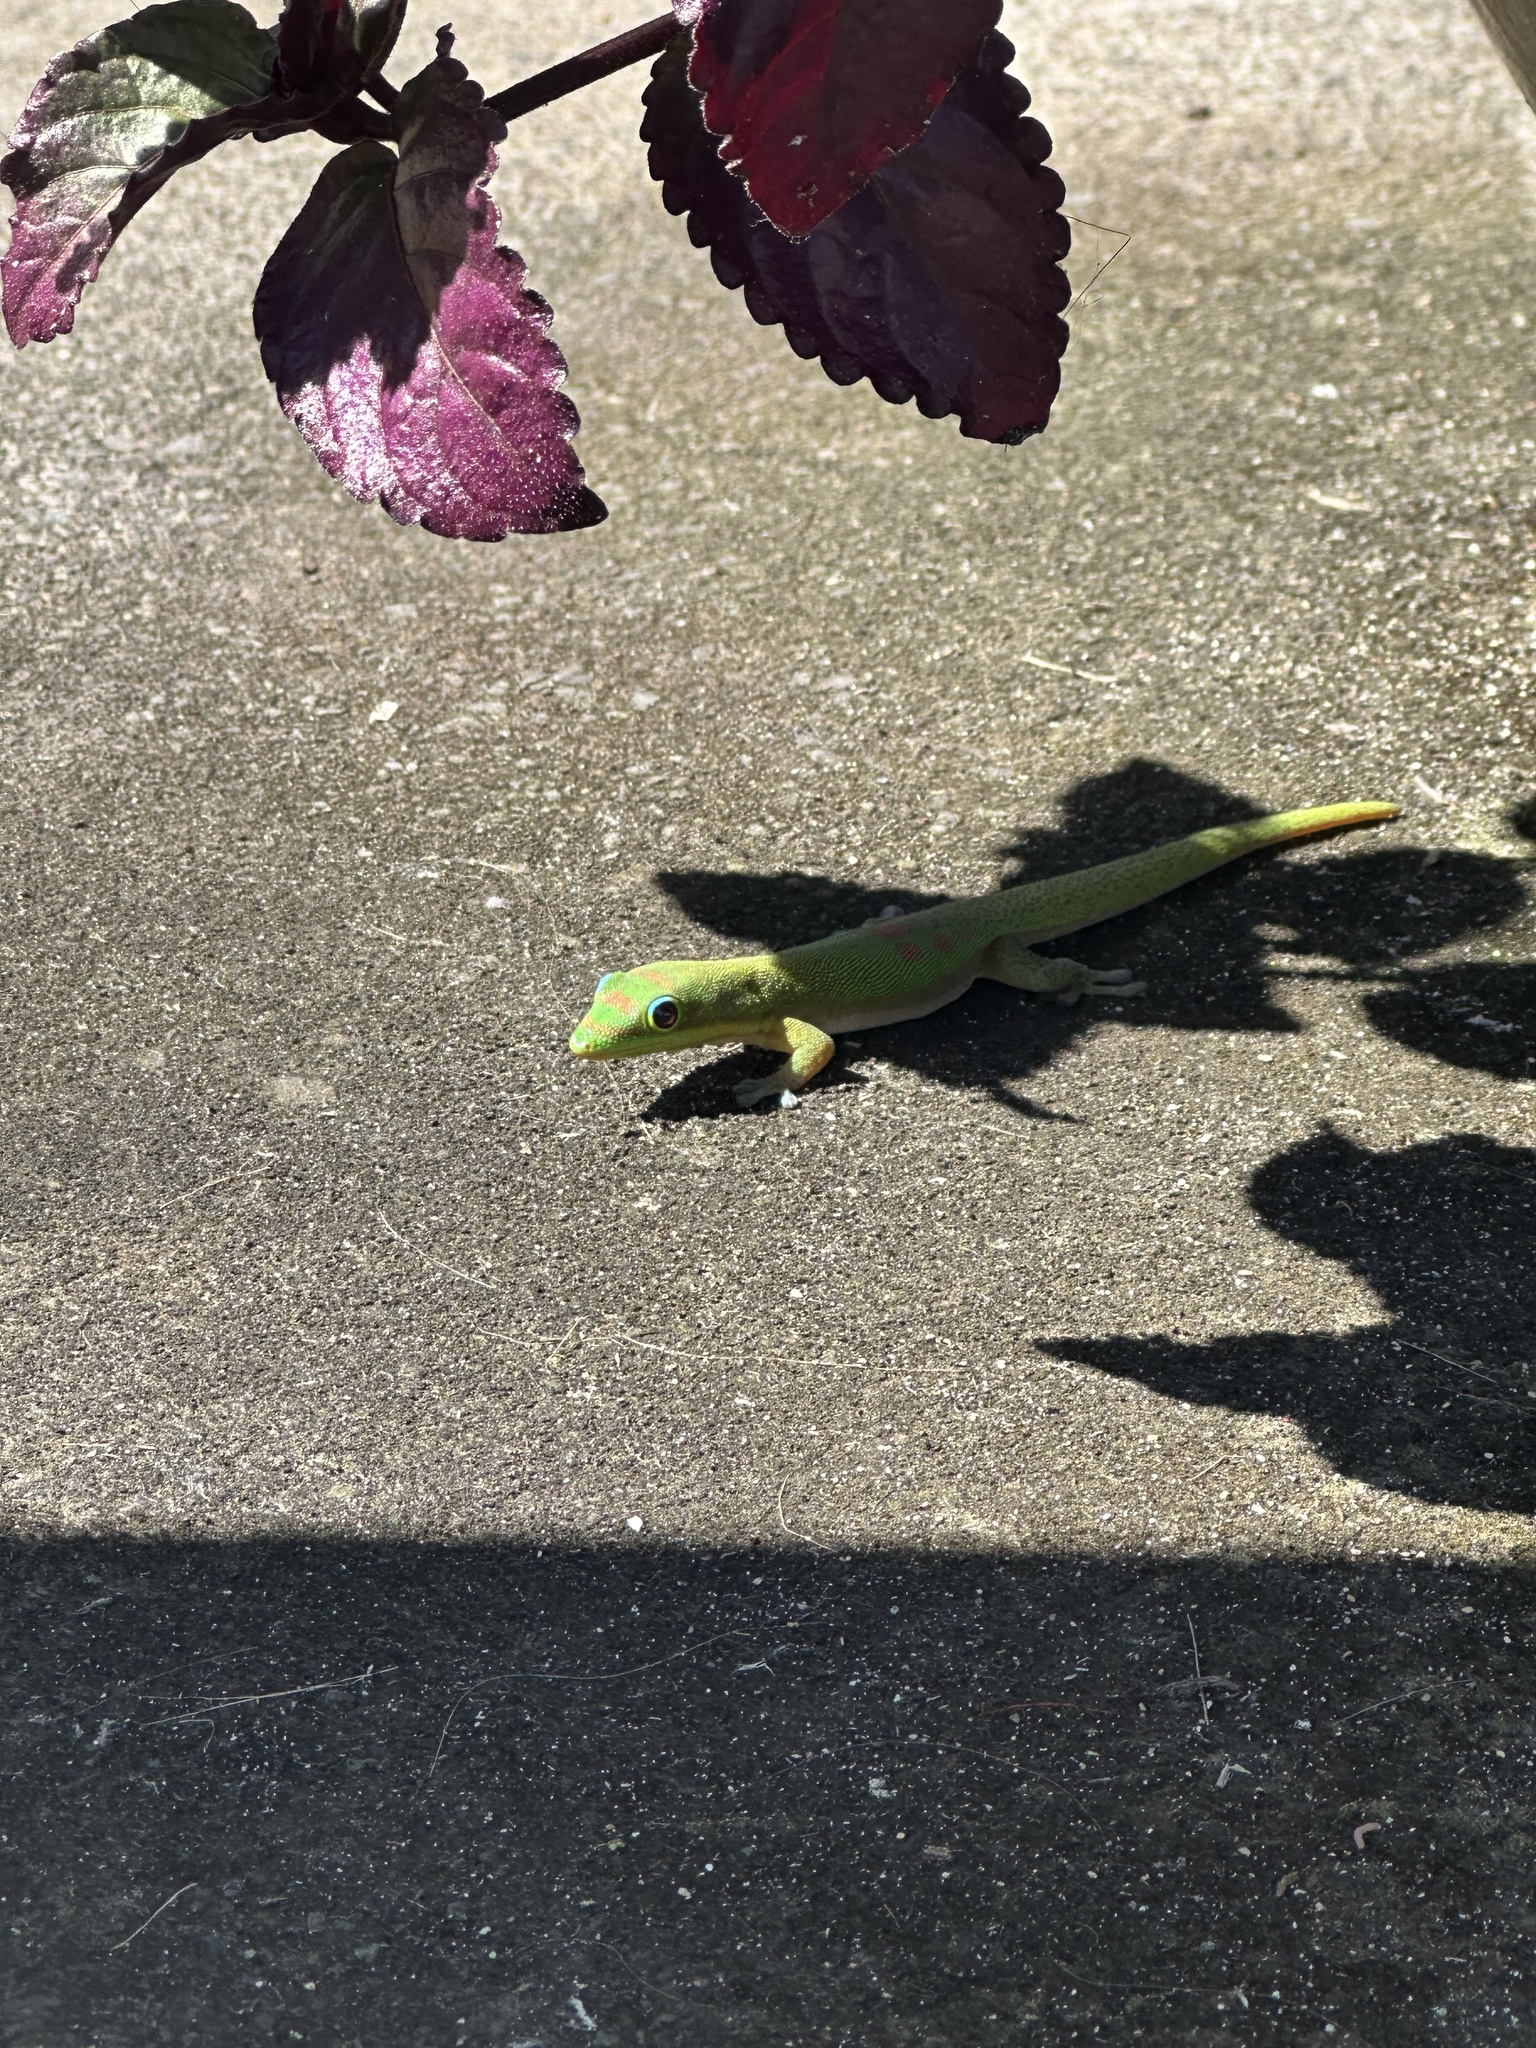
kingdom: Animalia
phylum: Chordata
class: Squamata
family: Gekkonidae
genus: Phelsuma
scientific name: Phelsuma laticauda
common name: Gold dust day gecko
